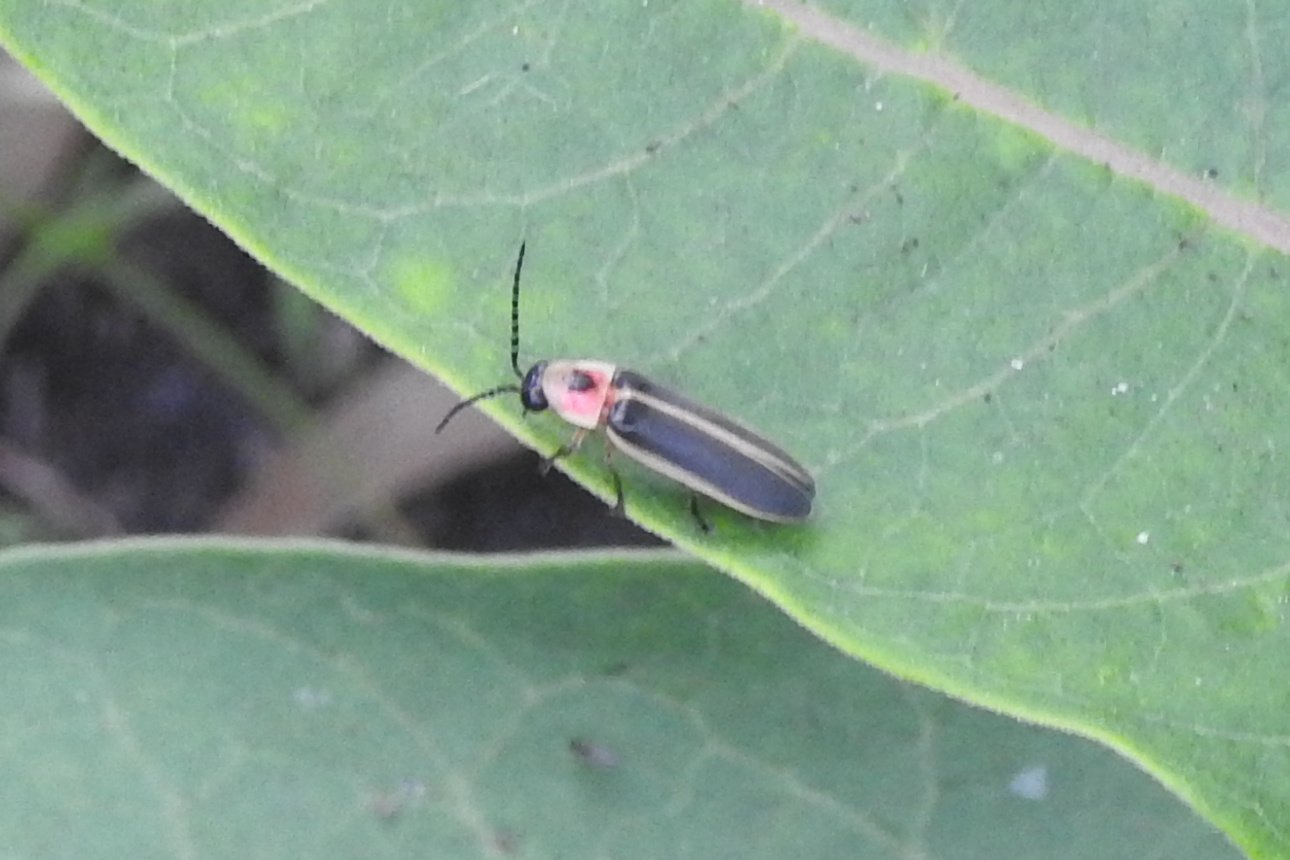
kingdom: Animalia
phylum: Arthropoda
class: Insecta
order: Coleoptera
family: Lampyridae
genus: Photinus
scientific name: Photinus pyralis
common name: Big dipper firefly
